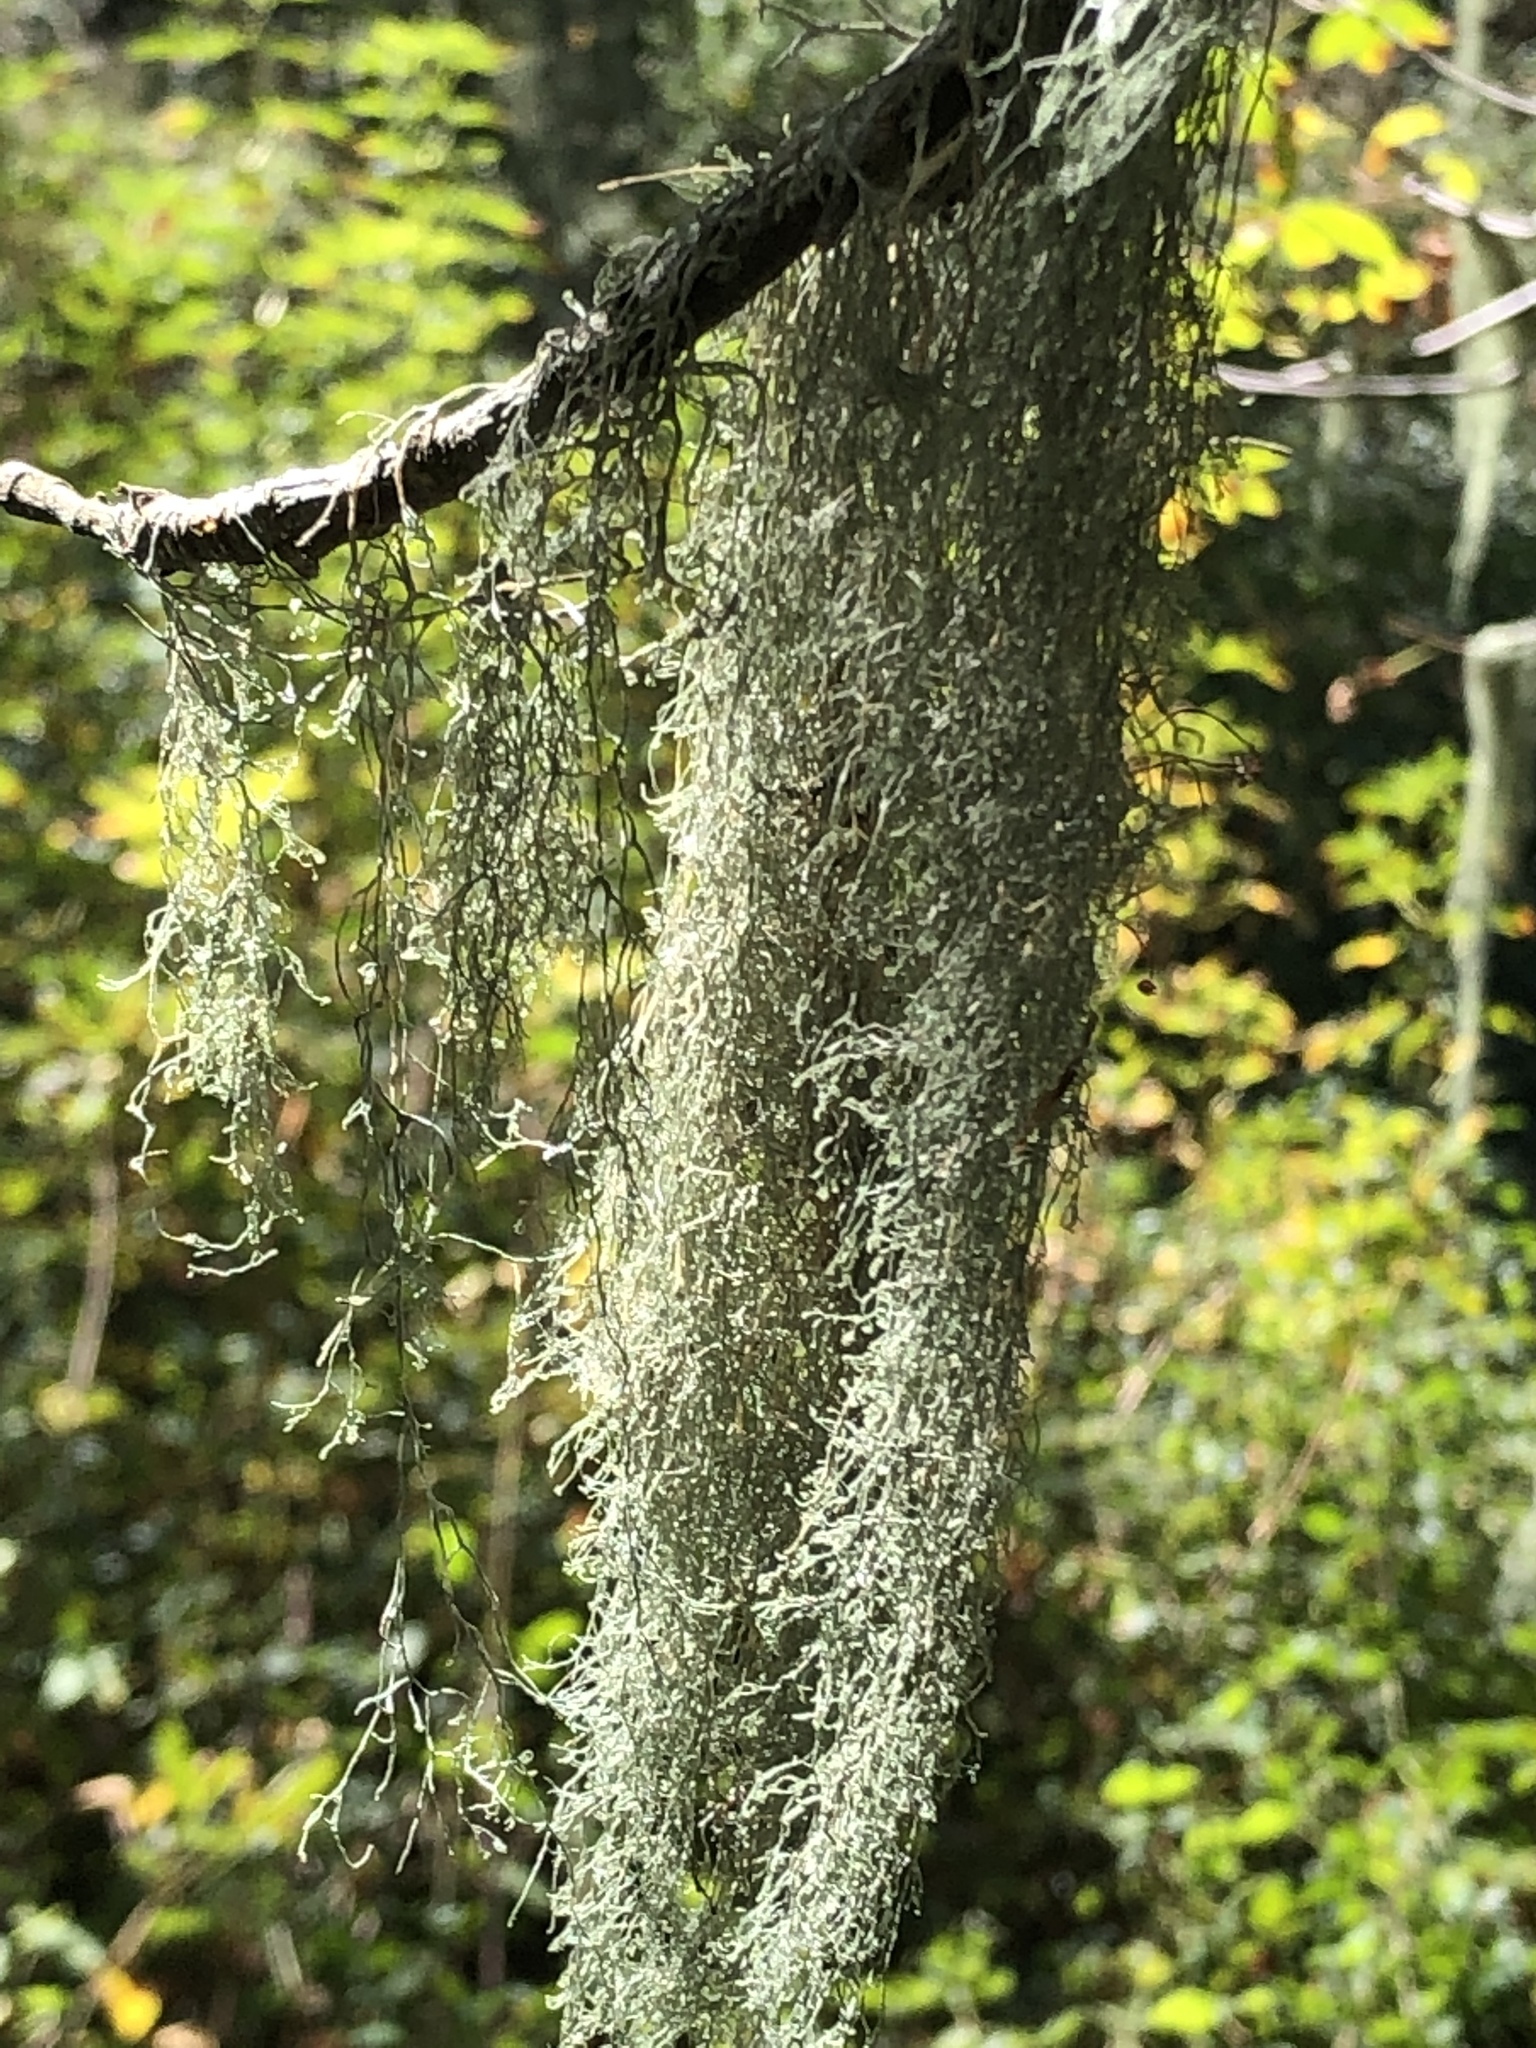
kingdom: Fungi
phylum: Ascomycota
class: Lecanoromycetes
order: Lecanorales
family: Ramalinaceae
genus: Ramalina
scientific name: Ramalina menziesii
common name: Lace lichen
